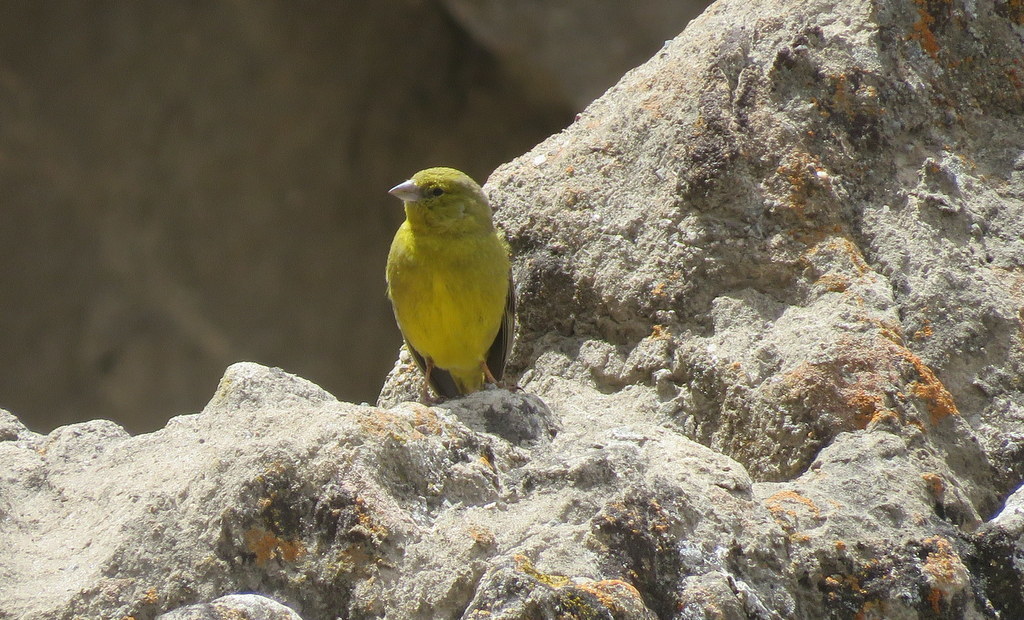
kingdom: Animalia
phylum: Chordata
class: Aves
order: Passeriformes
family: Thraupidae
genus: Sicalis
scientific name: Sicalis olivascens
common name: Greenish yellow finch
